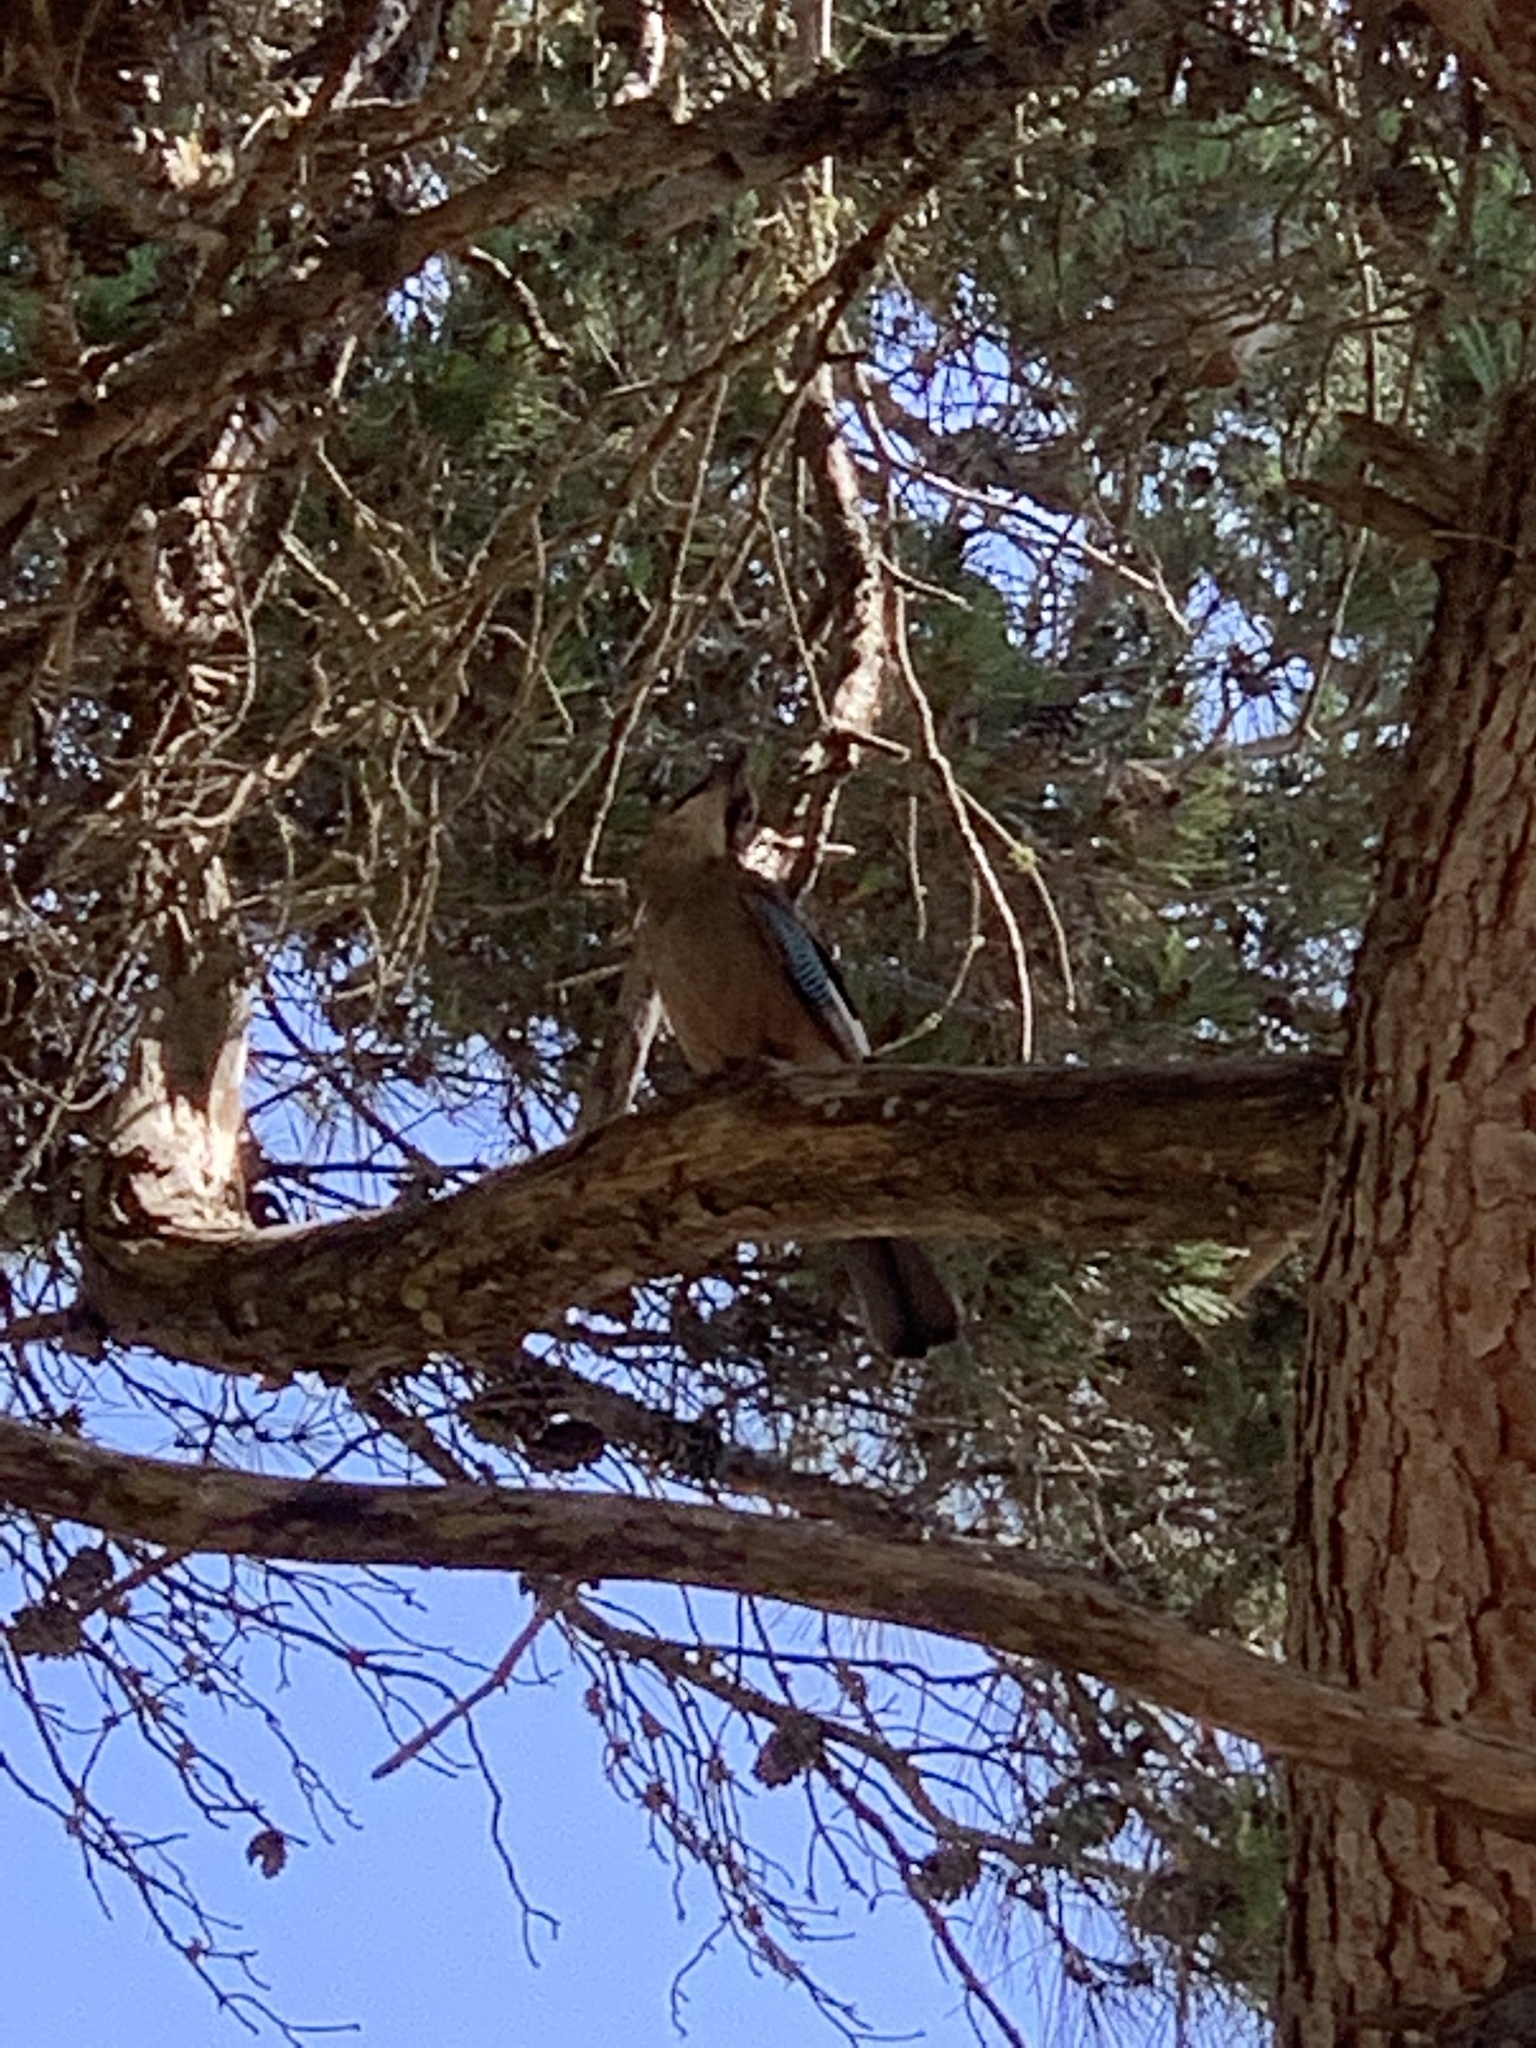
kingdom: Animalia
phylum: Chordata
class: Aves
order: Passeriformes
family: Corvidae
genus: Garrulus
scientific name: Garrulus glandarius
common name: Eurasian jay
